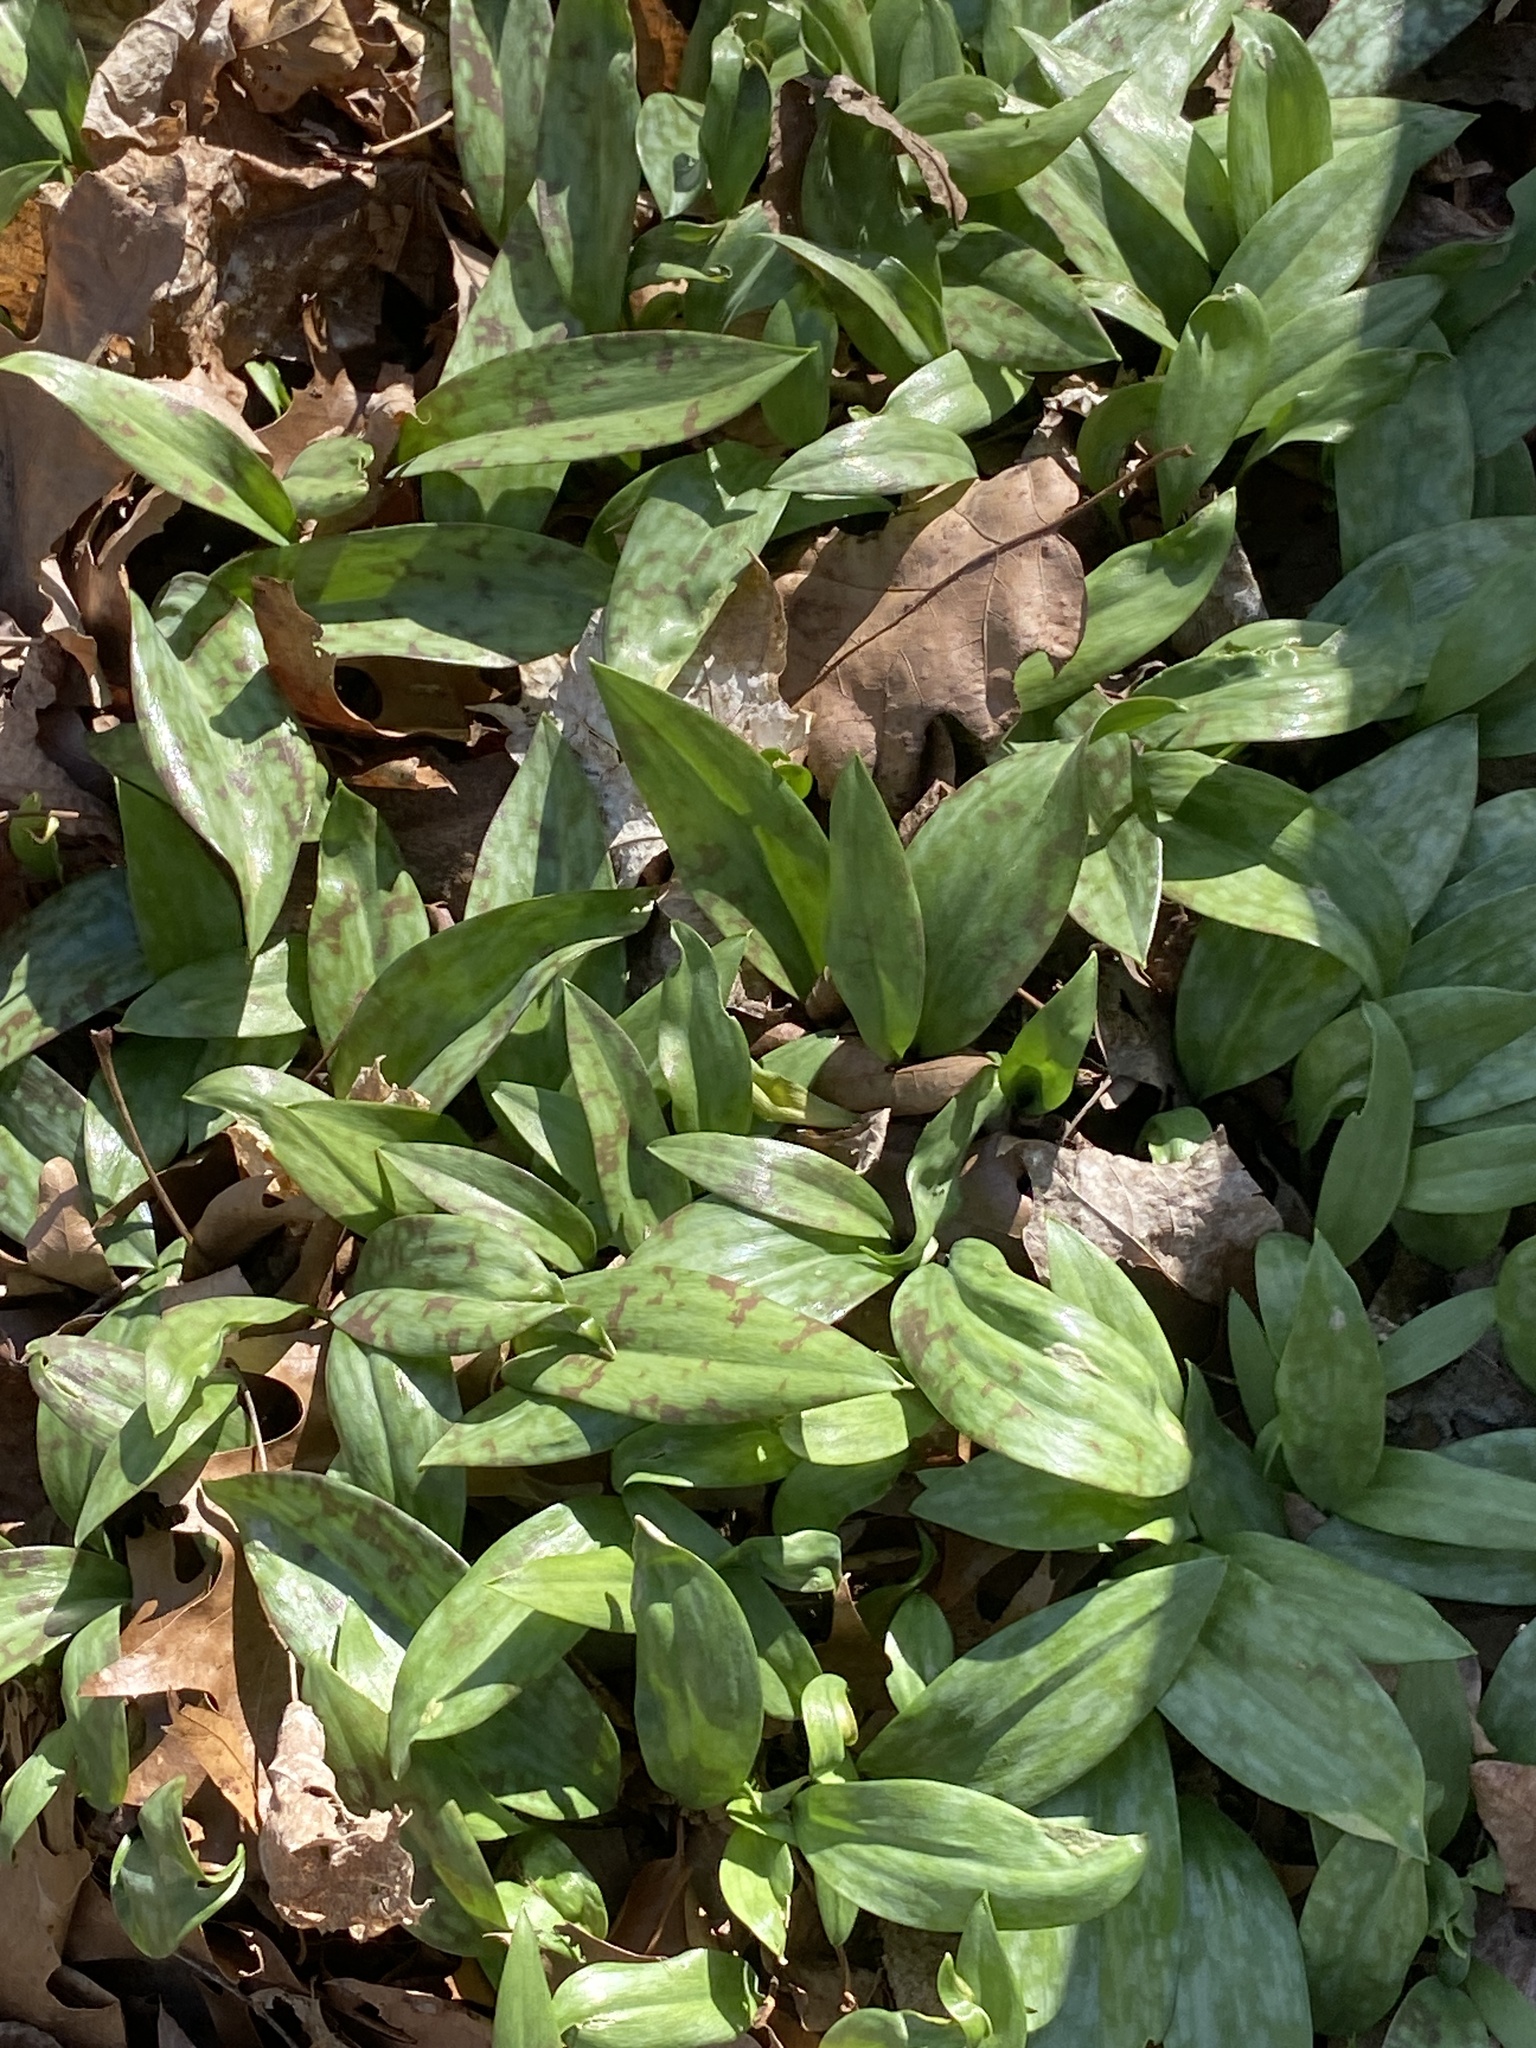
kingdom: Plantae
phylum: Tracheophyta
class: Liliopsida
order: Liliales
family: Liliaceae
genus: Erythronium
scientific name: Erythronium americanum
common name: Yellow adder's-tongue
